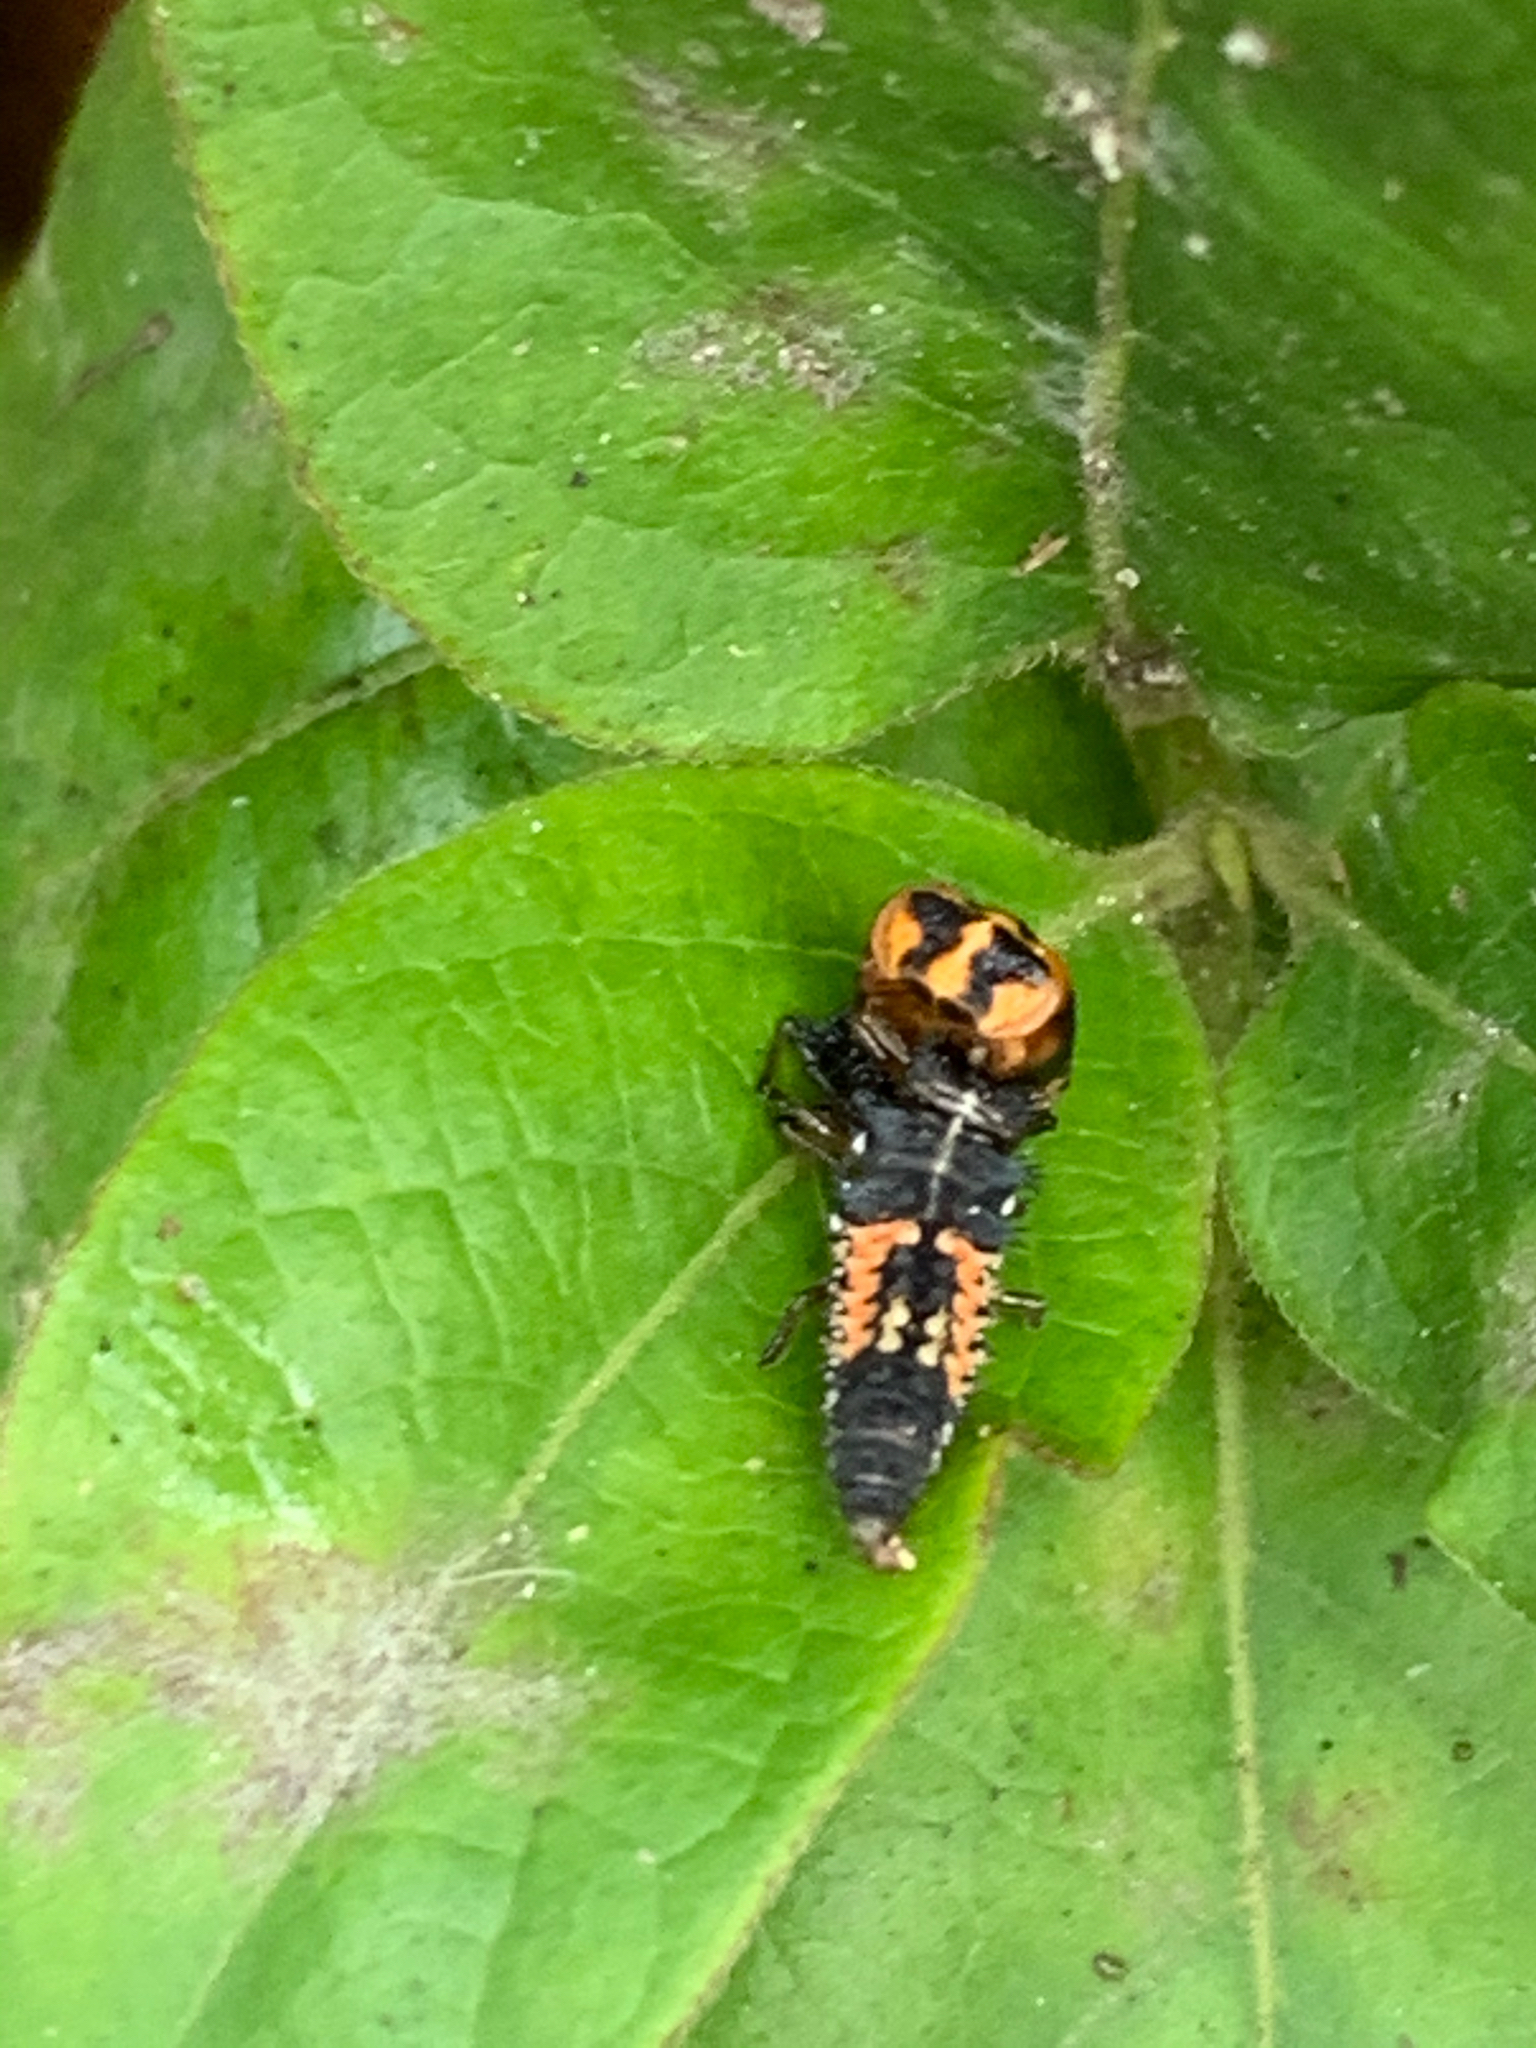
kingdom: Animalia
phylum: Arthropoda
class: Insecta
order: Coleoptera
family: Coccinellidae
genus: Harmonia
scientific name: Harmonia axyridis
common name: Harlequin ladybird
